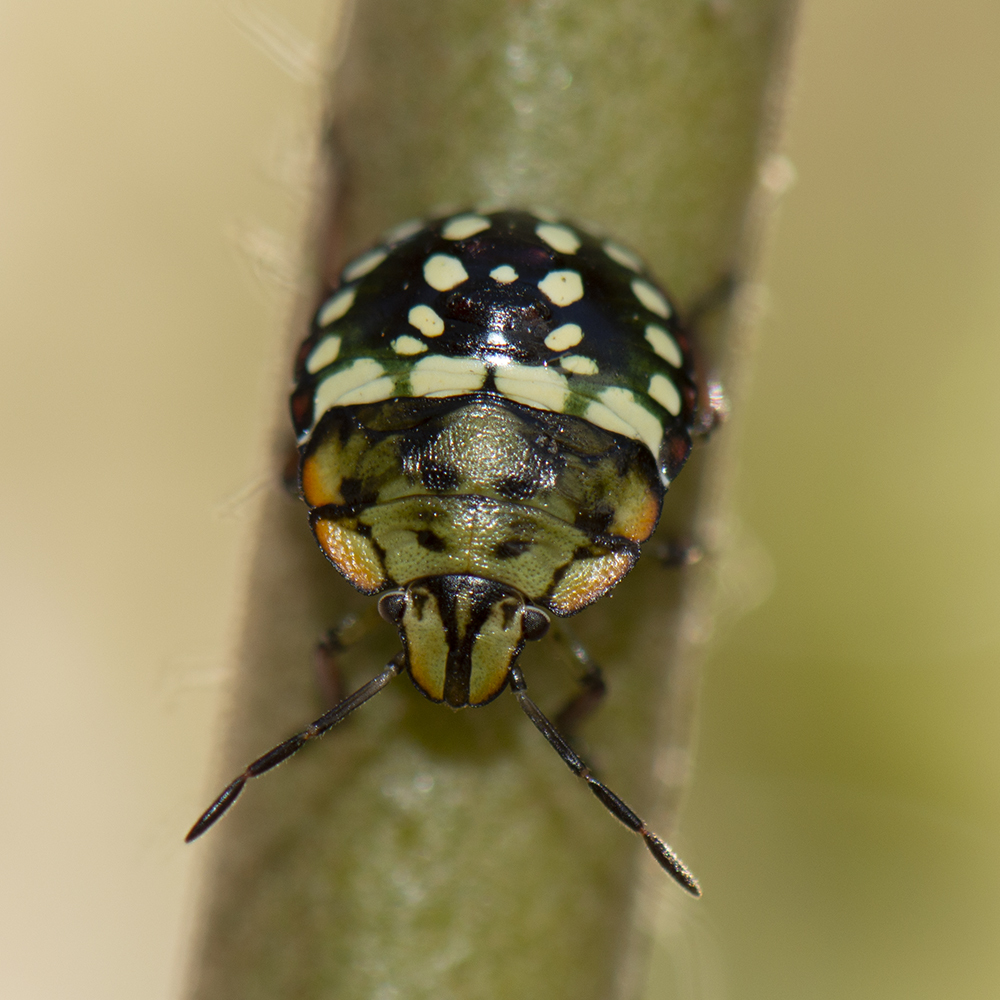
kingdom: Animalia
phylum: Arthropoda
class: Insecta
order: Hemiptera
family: Pentatomidae
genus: Nezara
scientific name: Nezara viridula
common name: Southern green stink bug
